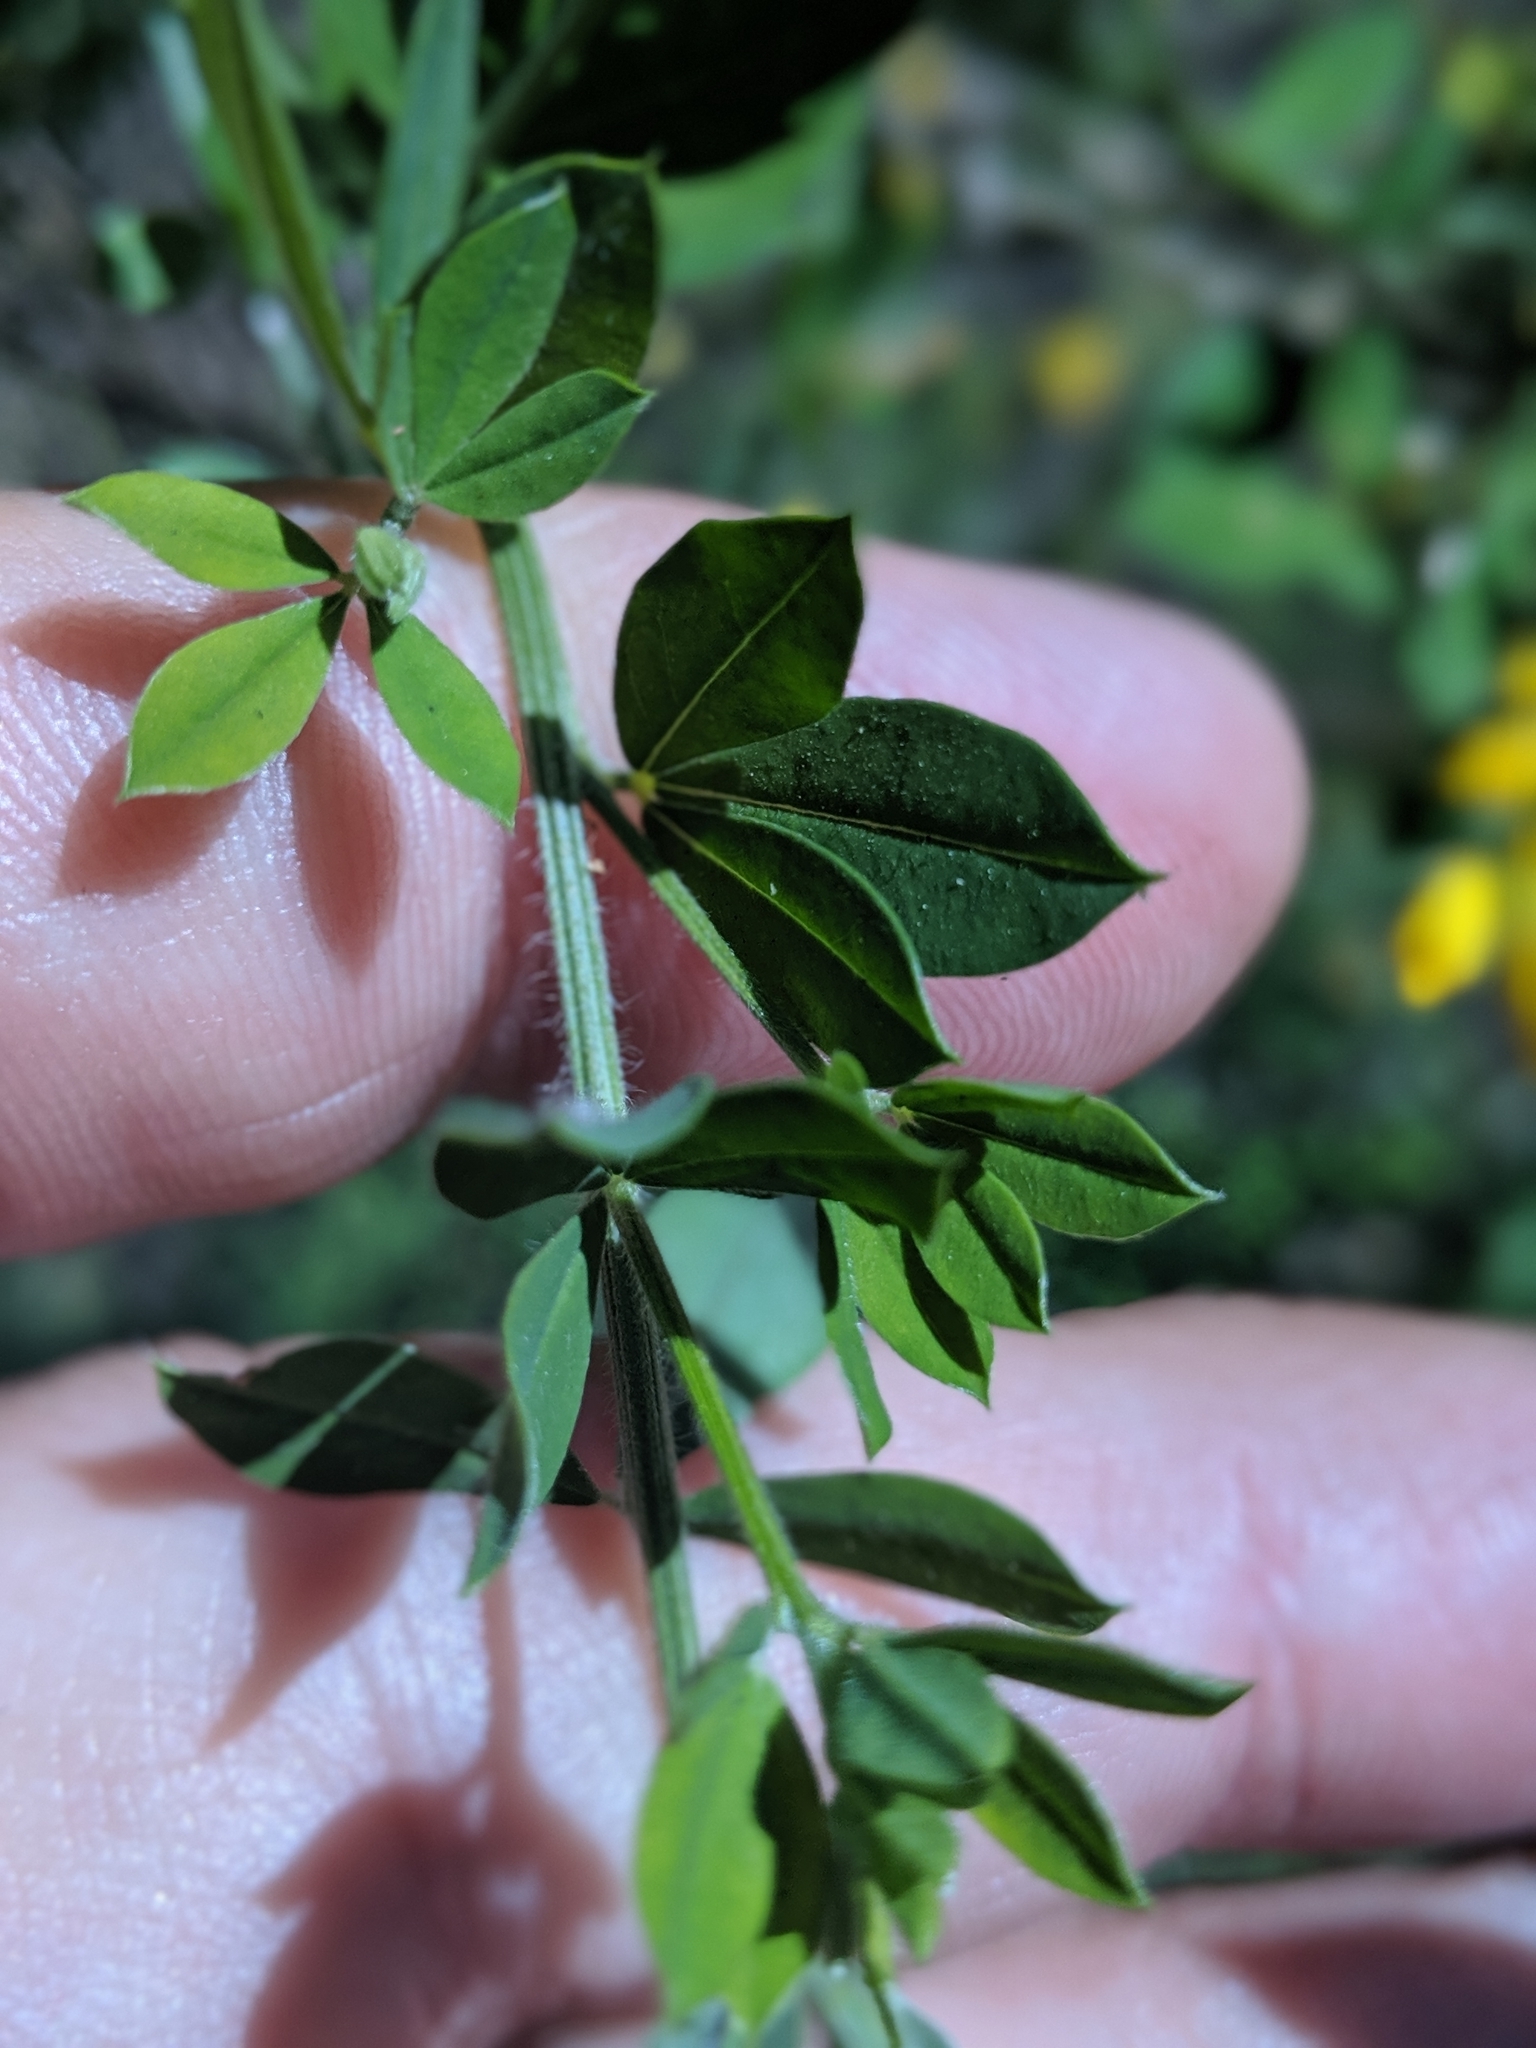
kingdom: Plantae
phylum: Tracheophyta
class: Magnoliopsida
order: Fabales
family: Fabaceae
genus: Genista
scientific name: Genista monspessulana
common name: Montpellier broom
